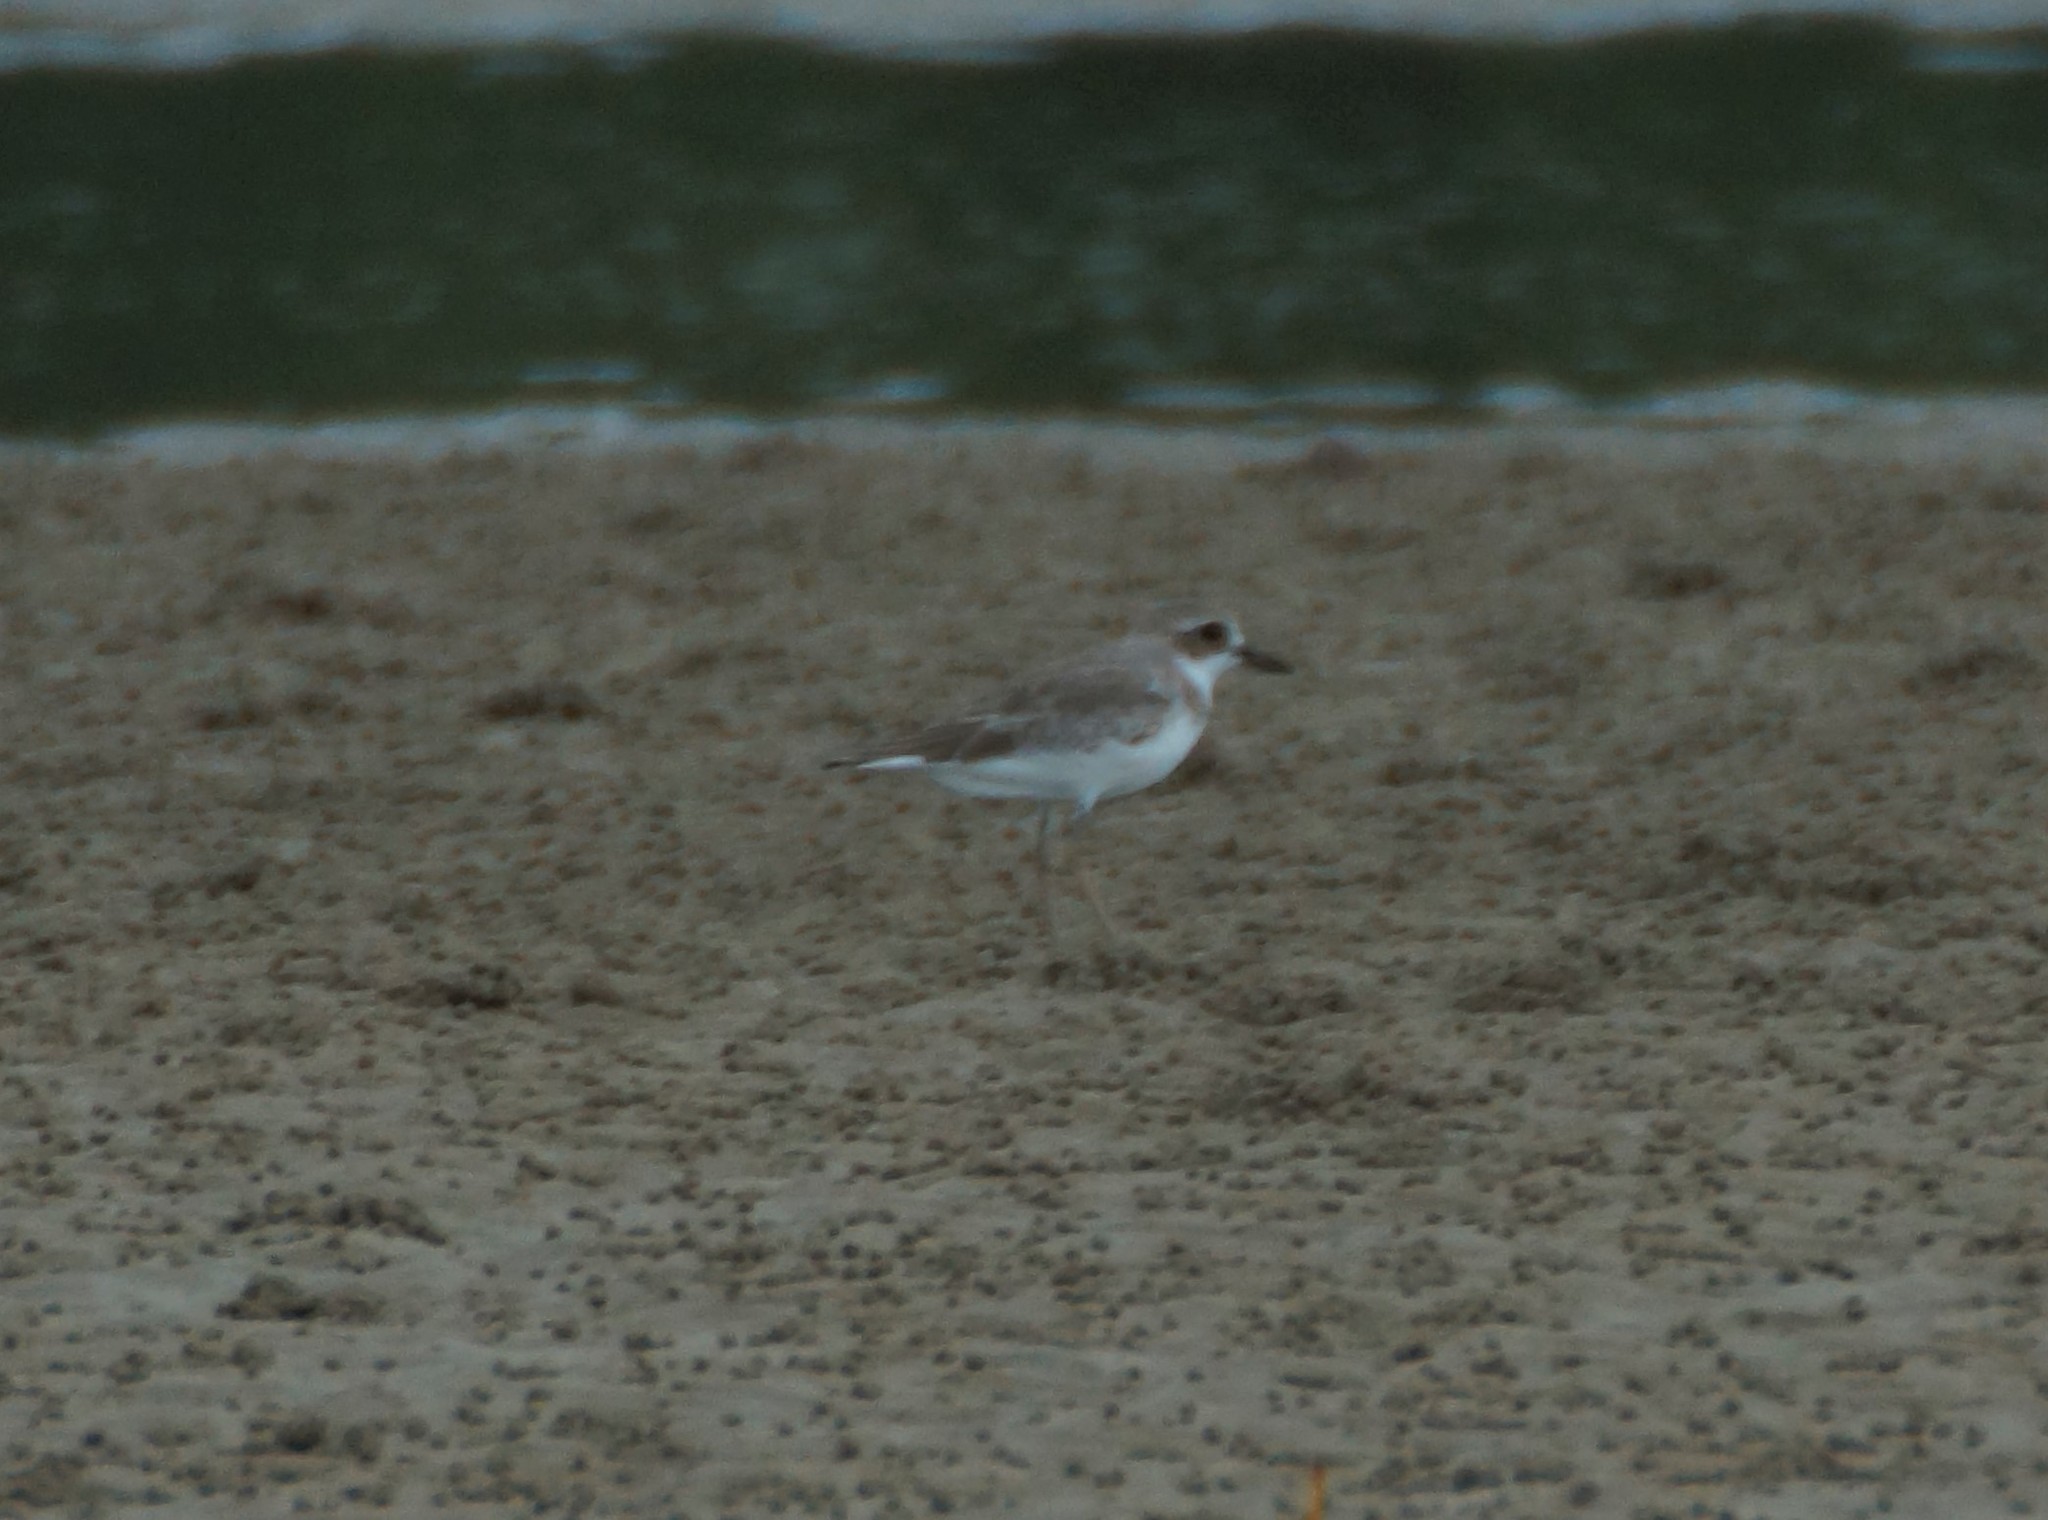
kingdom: Animalia
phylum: Chordata
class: Aves
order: Charadriiformes
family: Charadriidae
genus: Charadrius
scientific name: Charadrius leschenaultii
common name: Greater sand plover
